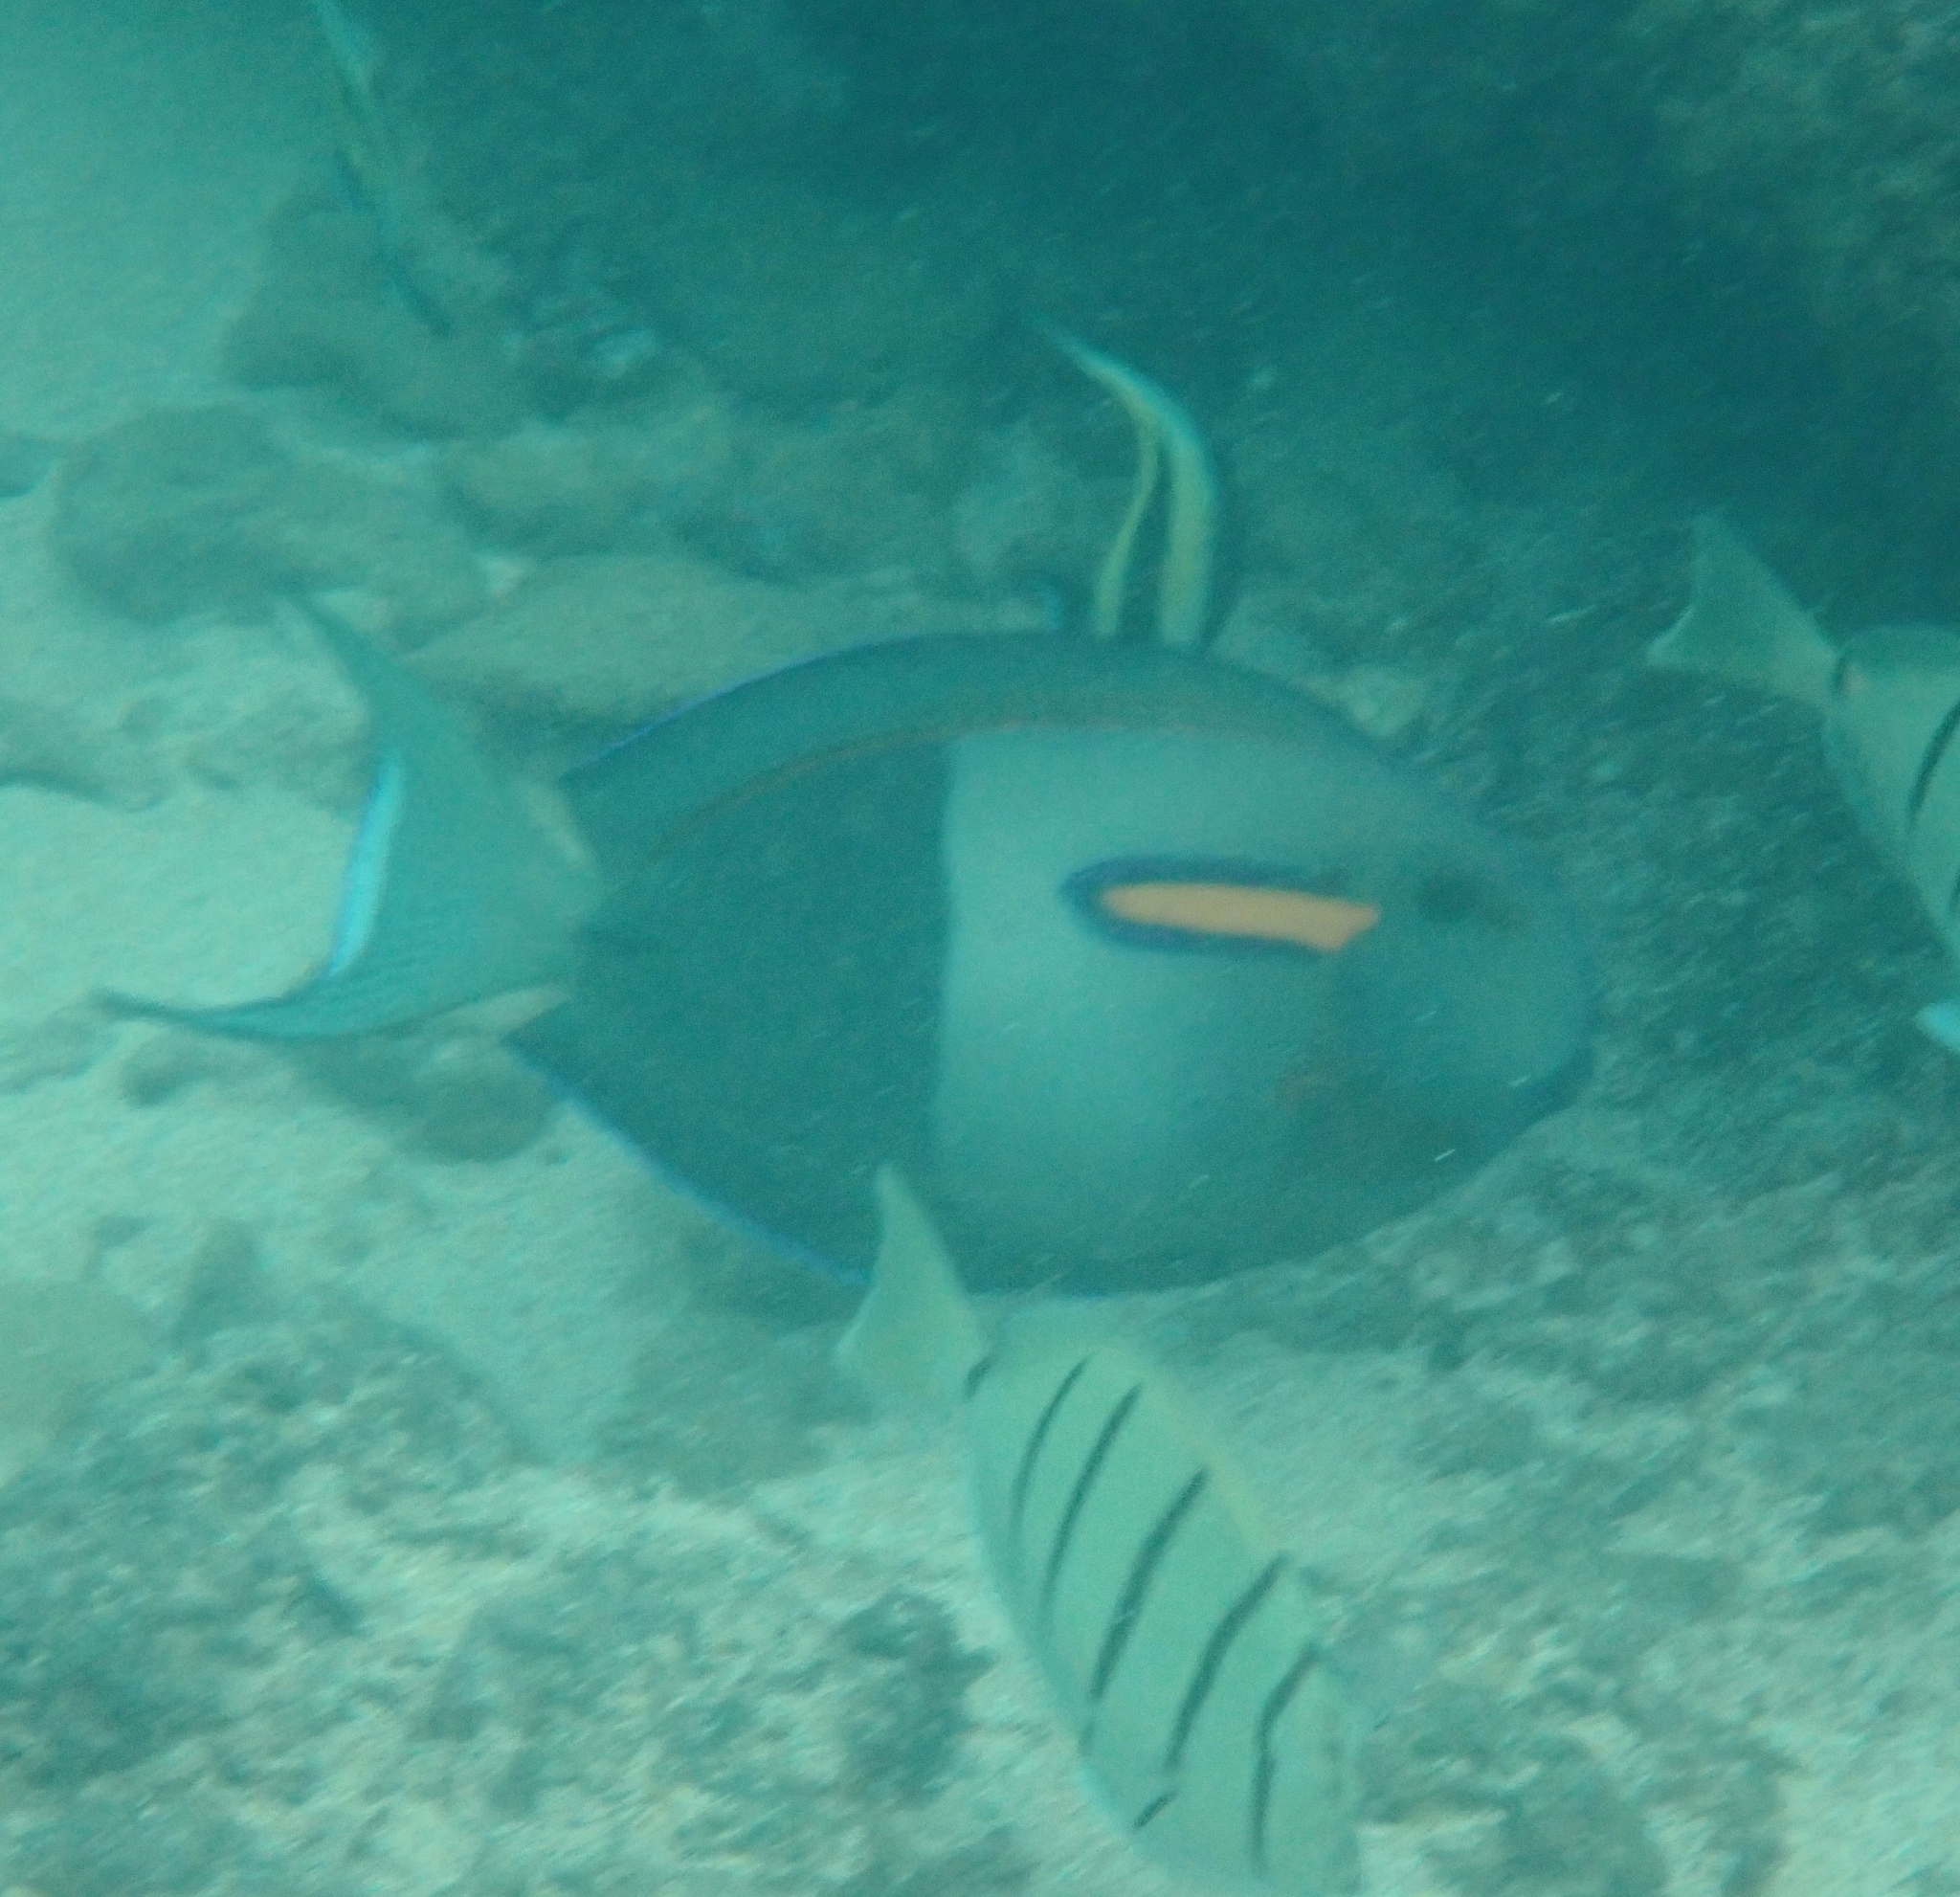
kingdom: Animalia
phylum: Chordata
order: Perciformes
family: Acanthuridae
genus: Acanthurus
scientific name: Acanthurus olivaceus
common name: Gendarme fish
